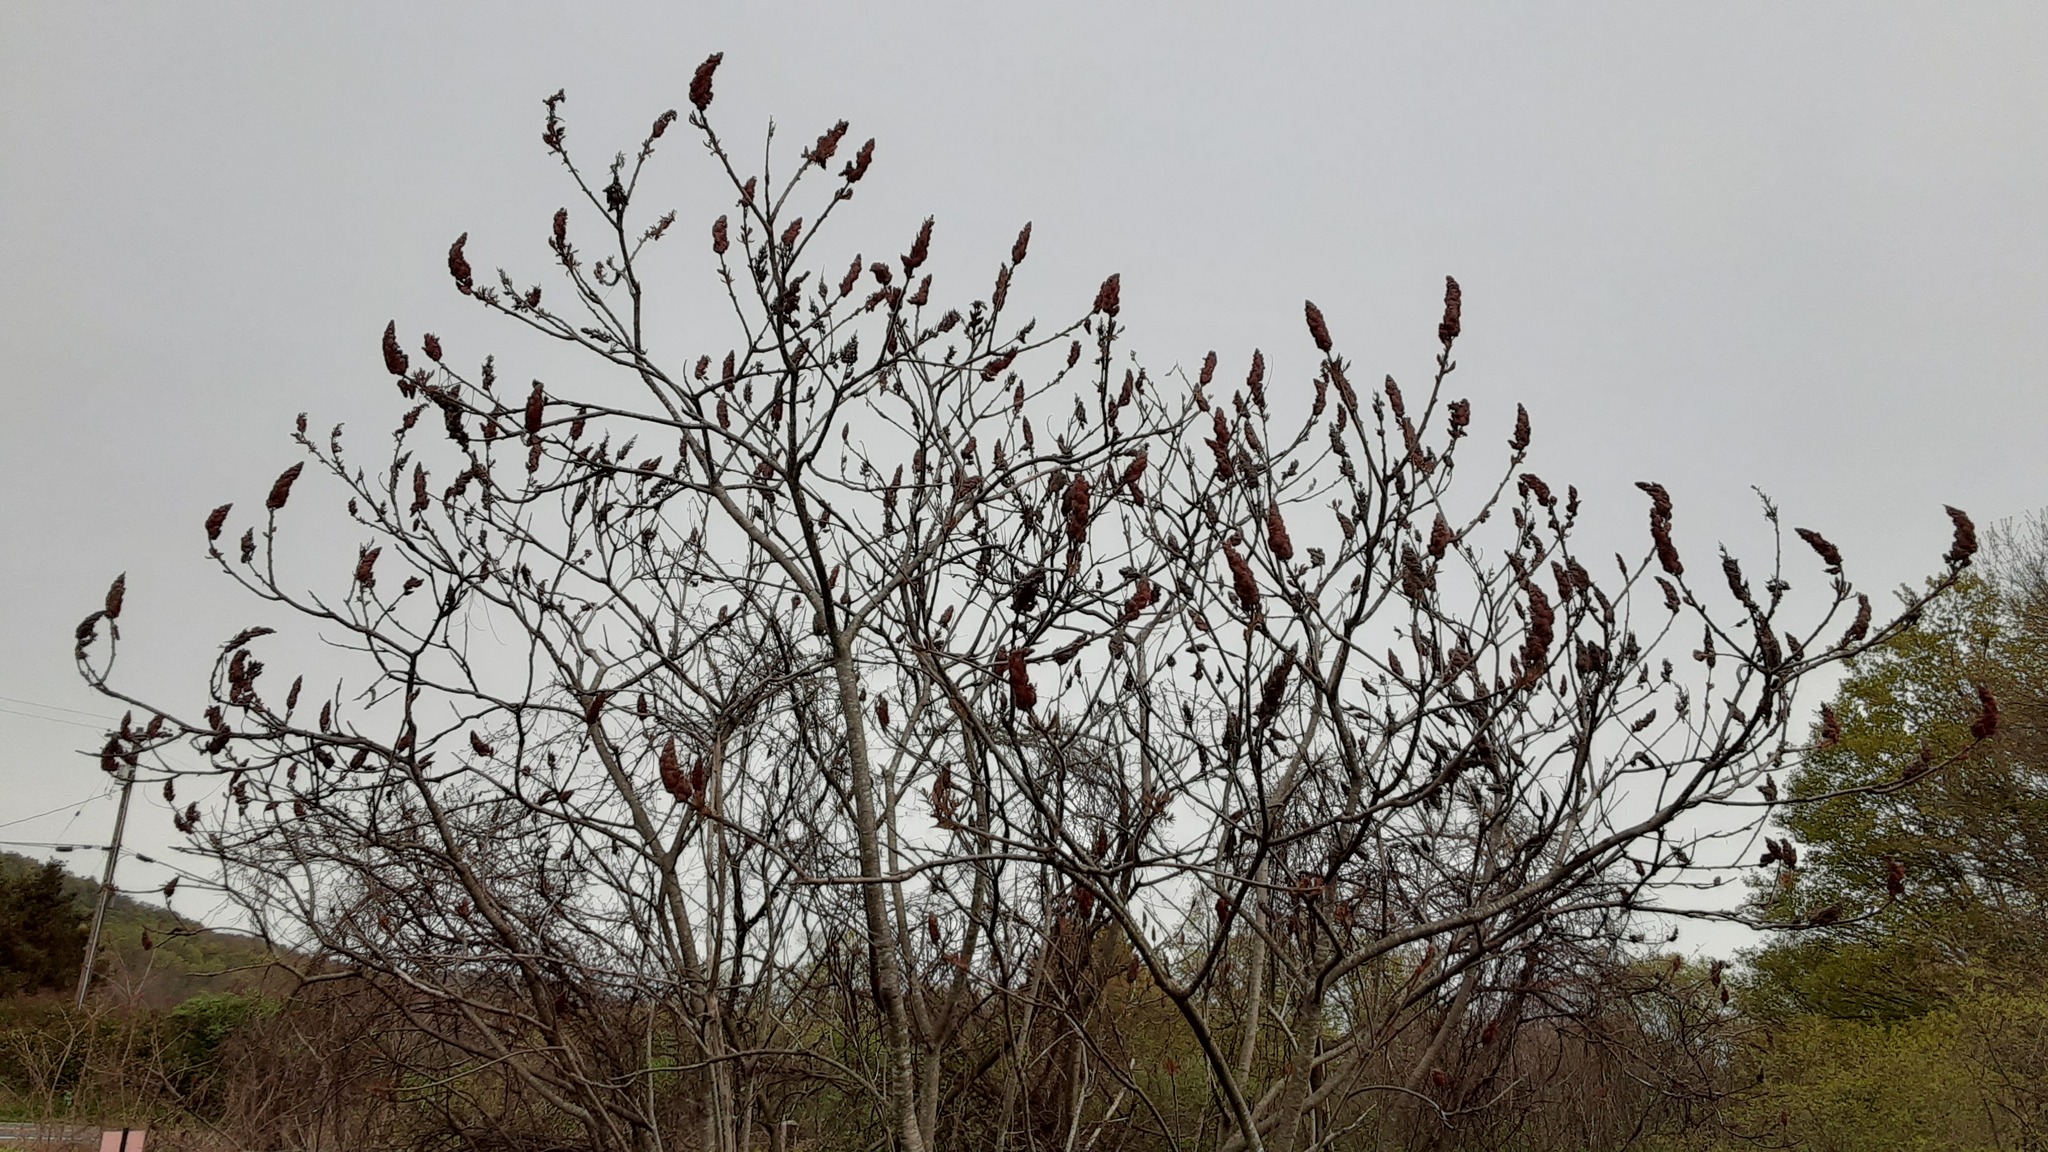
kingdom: Plantae
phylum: Tracheophyta
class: Magnoliopsida
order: Sapindales
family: Anacardiaceae
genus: Rhus
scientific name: Rhus typhina
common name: Staghorn sumac
